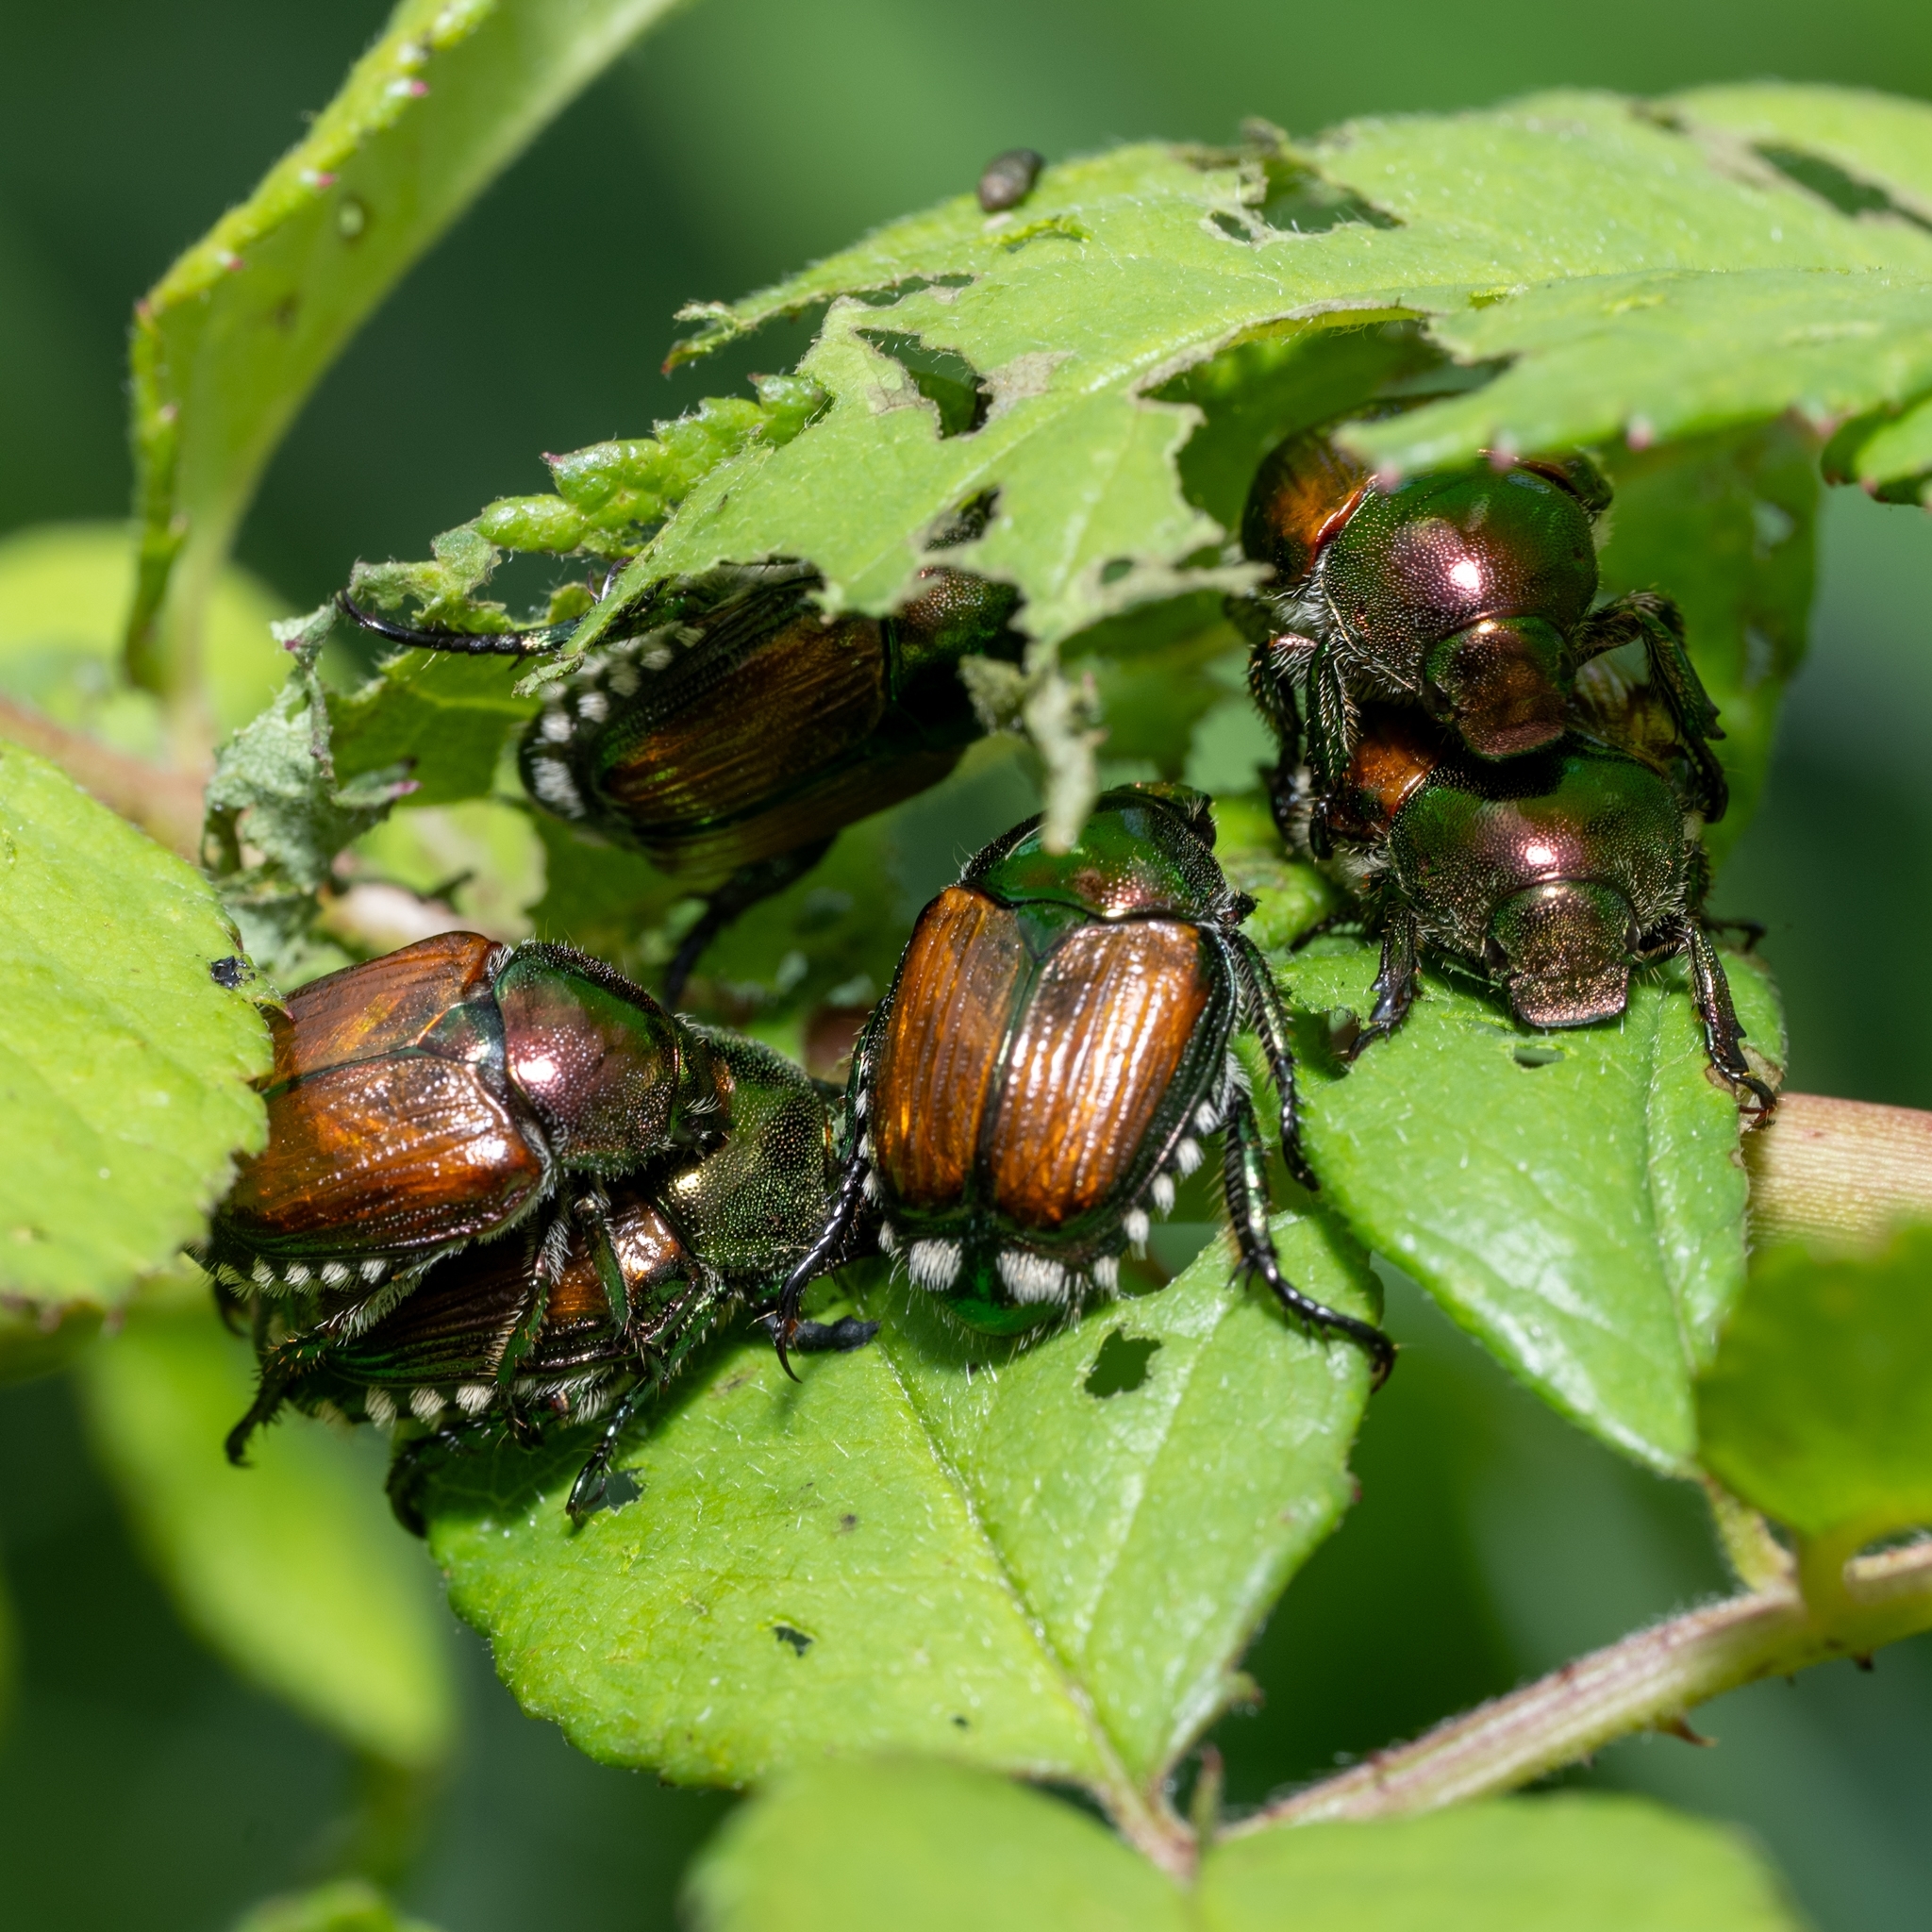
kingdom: Animalia
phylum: Arthropoda
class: Insecta
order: Coleoptera
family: Scarabaeidae
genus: Popillia
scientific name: Popillia japonica
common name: Japanese beetle
